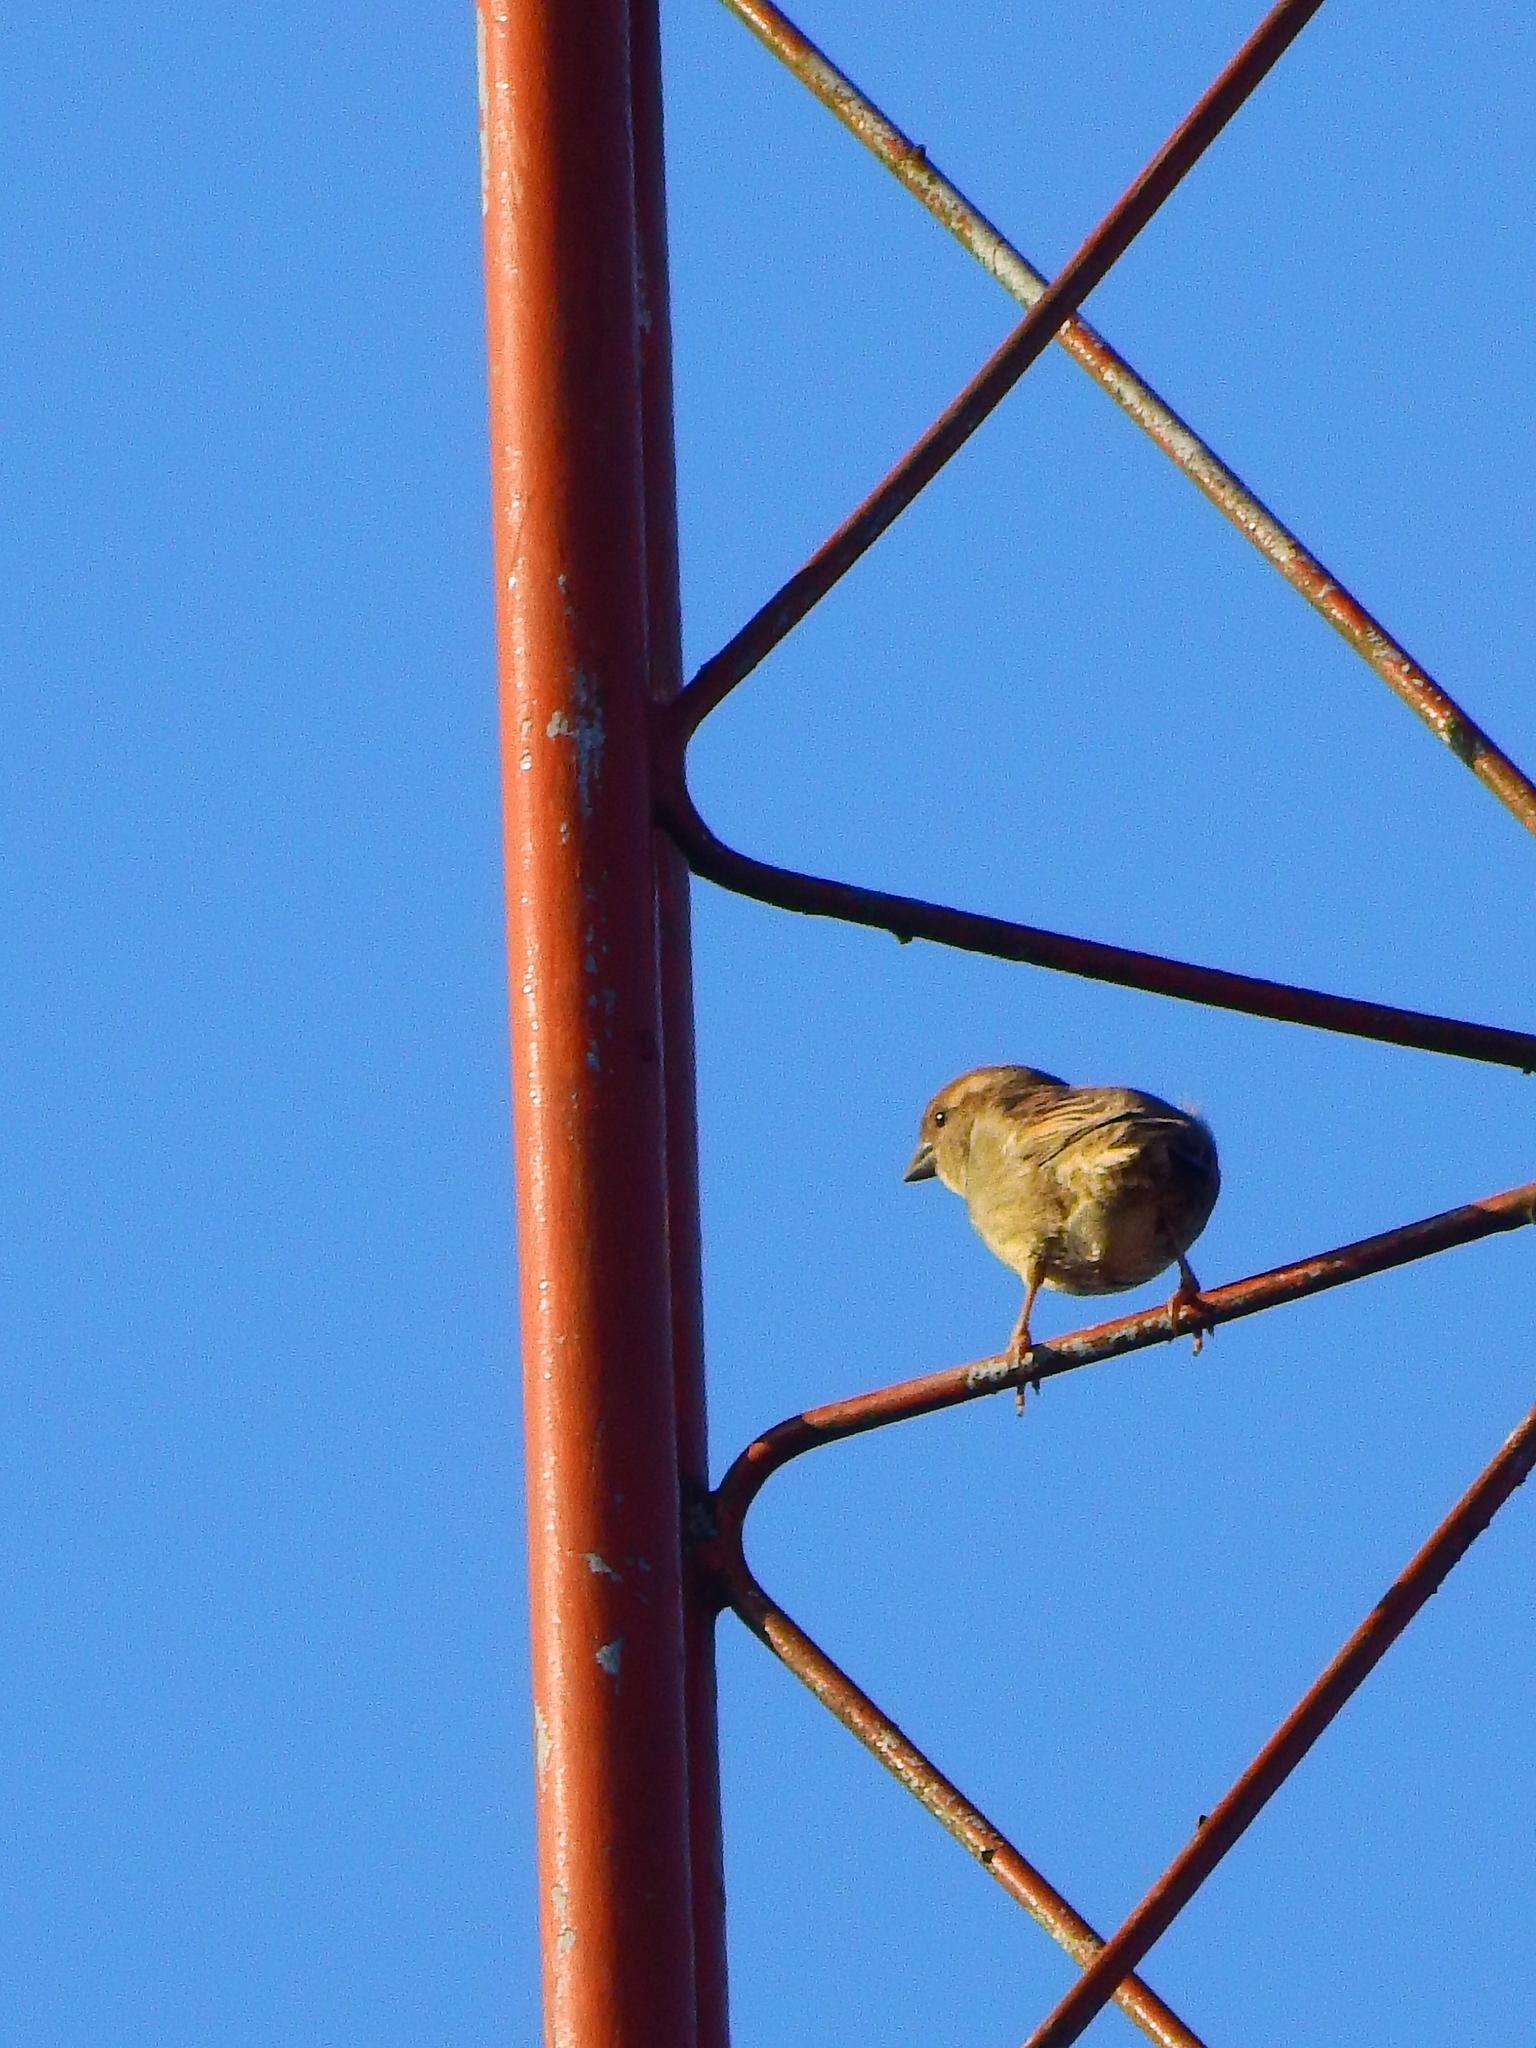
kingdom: Animalia
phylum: Chordata
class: Aves
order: Passeriformes
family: Passeridae
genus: Passer
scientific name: Passer domesticus
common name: House sparrow
